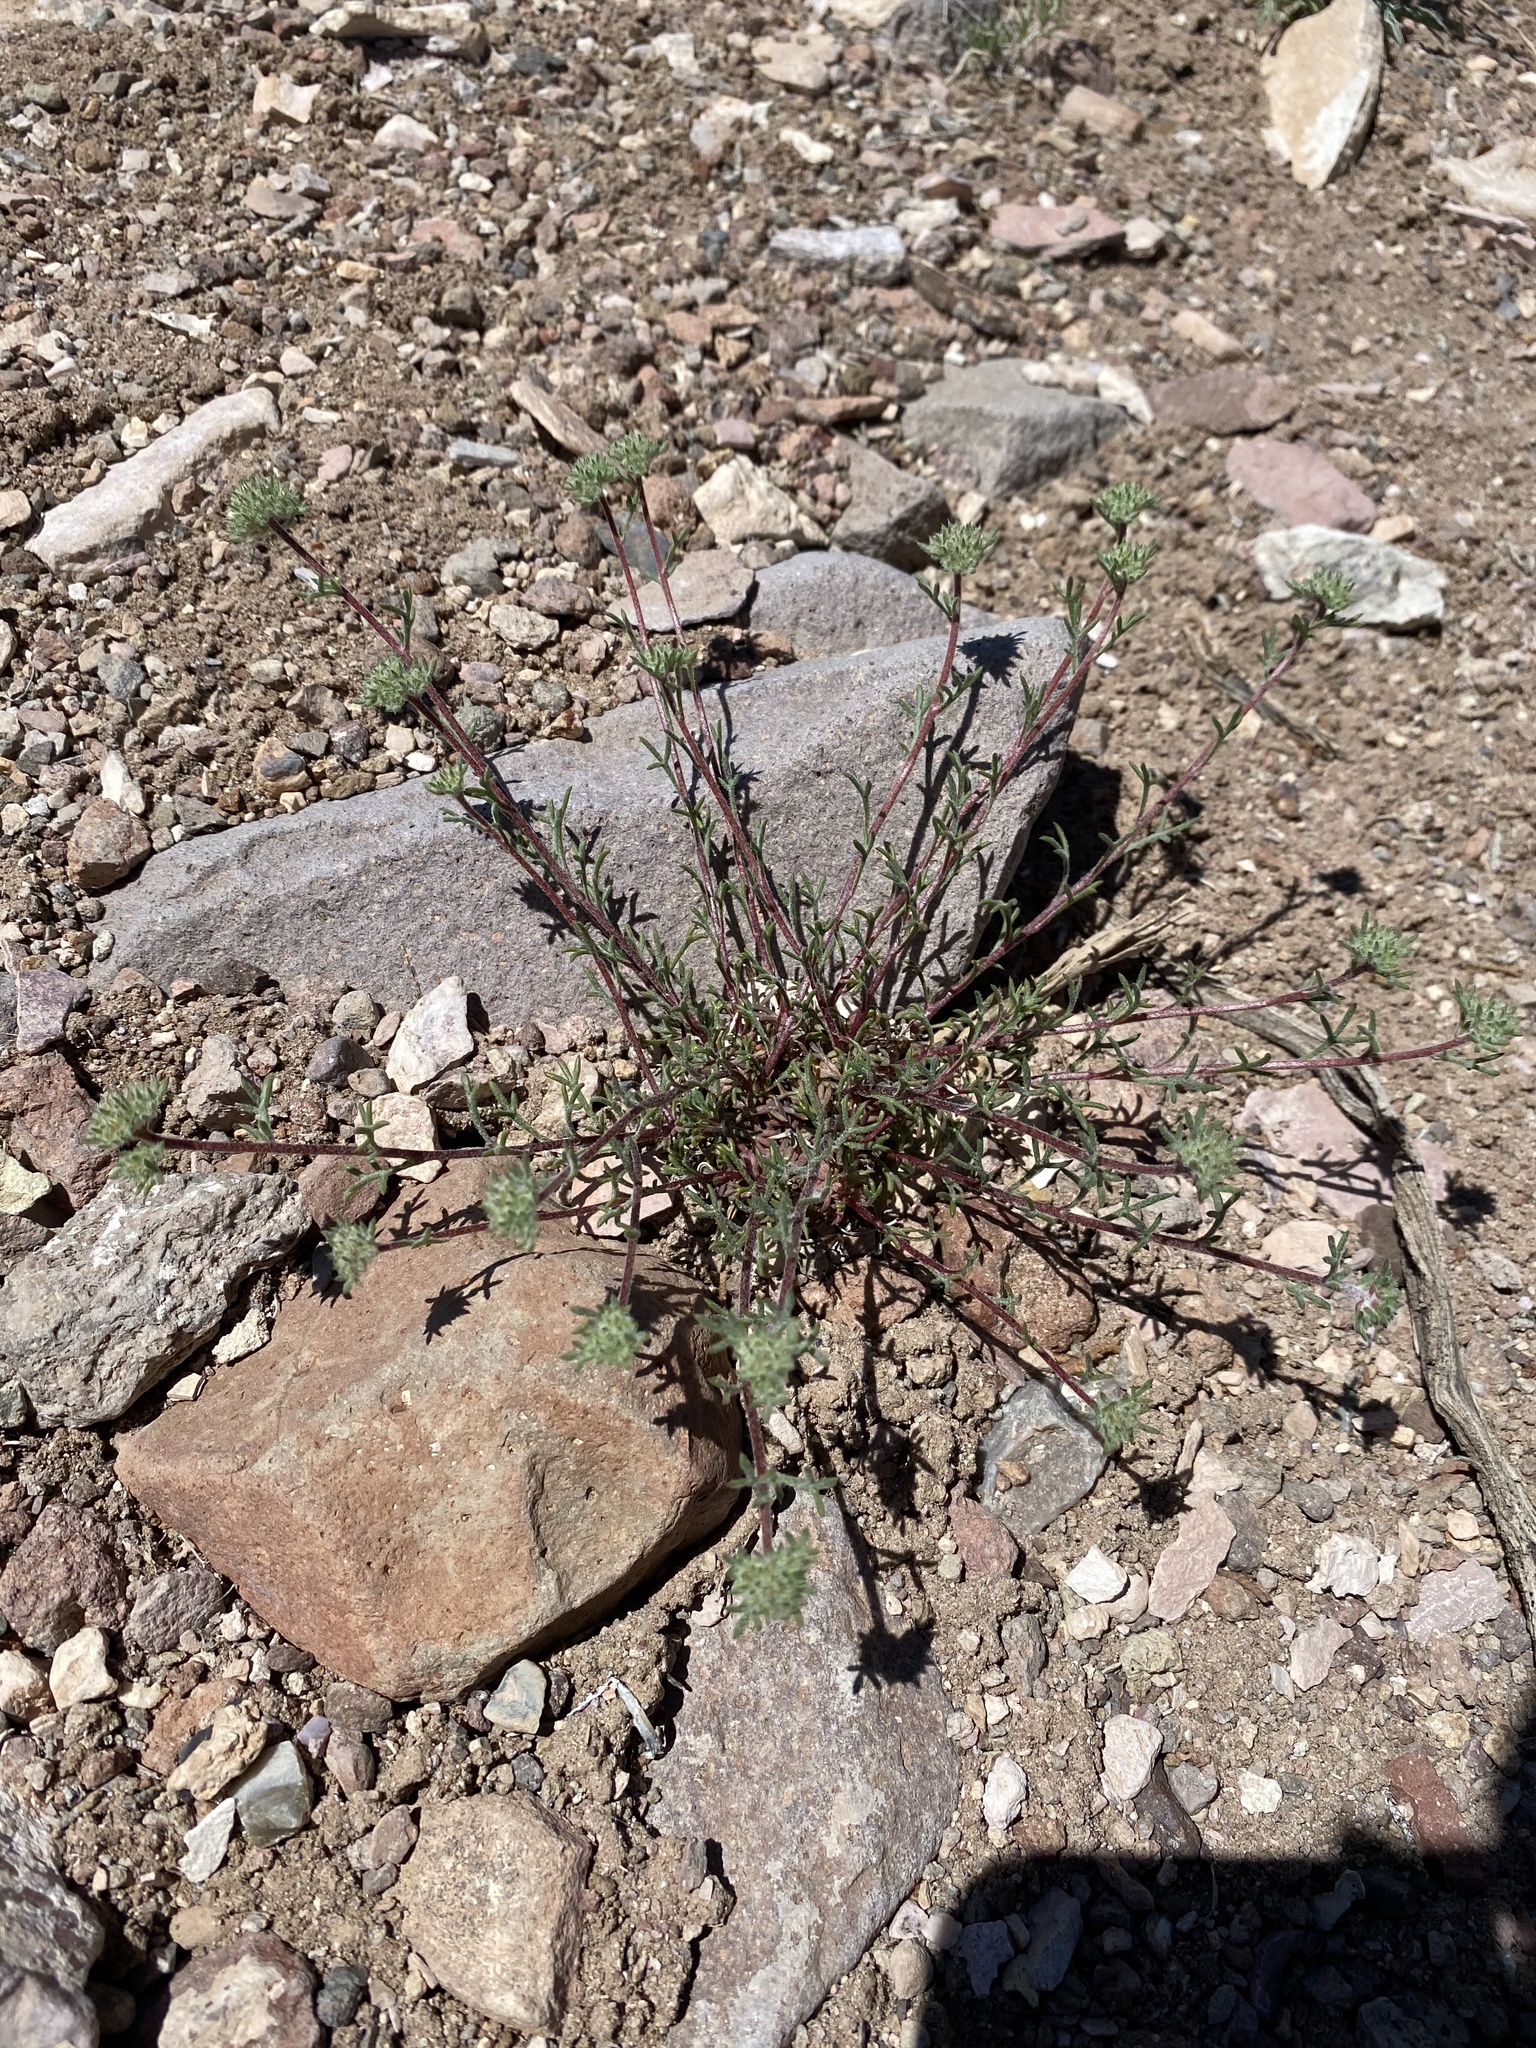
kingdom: Plantae
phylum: Tracheophyta
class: Magnoliopsida
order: Ericales
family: Polemoniaceae
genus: Ipomopsis
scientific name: Ipomopsis congesta
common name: Ball-head gilia
